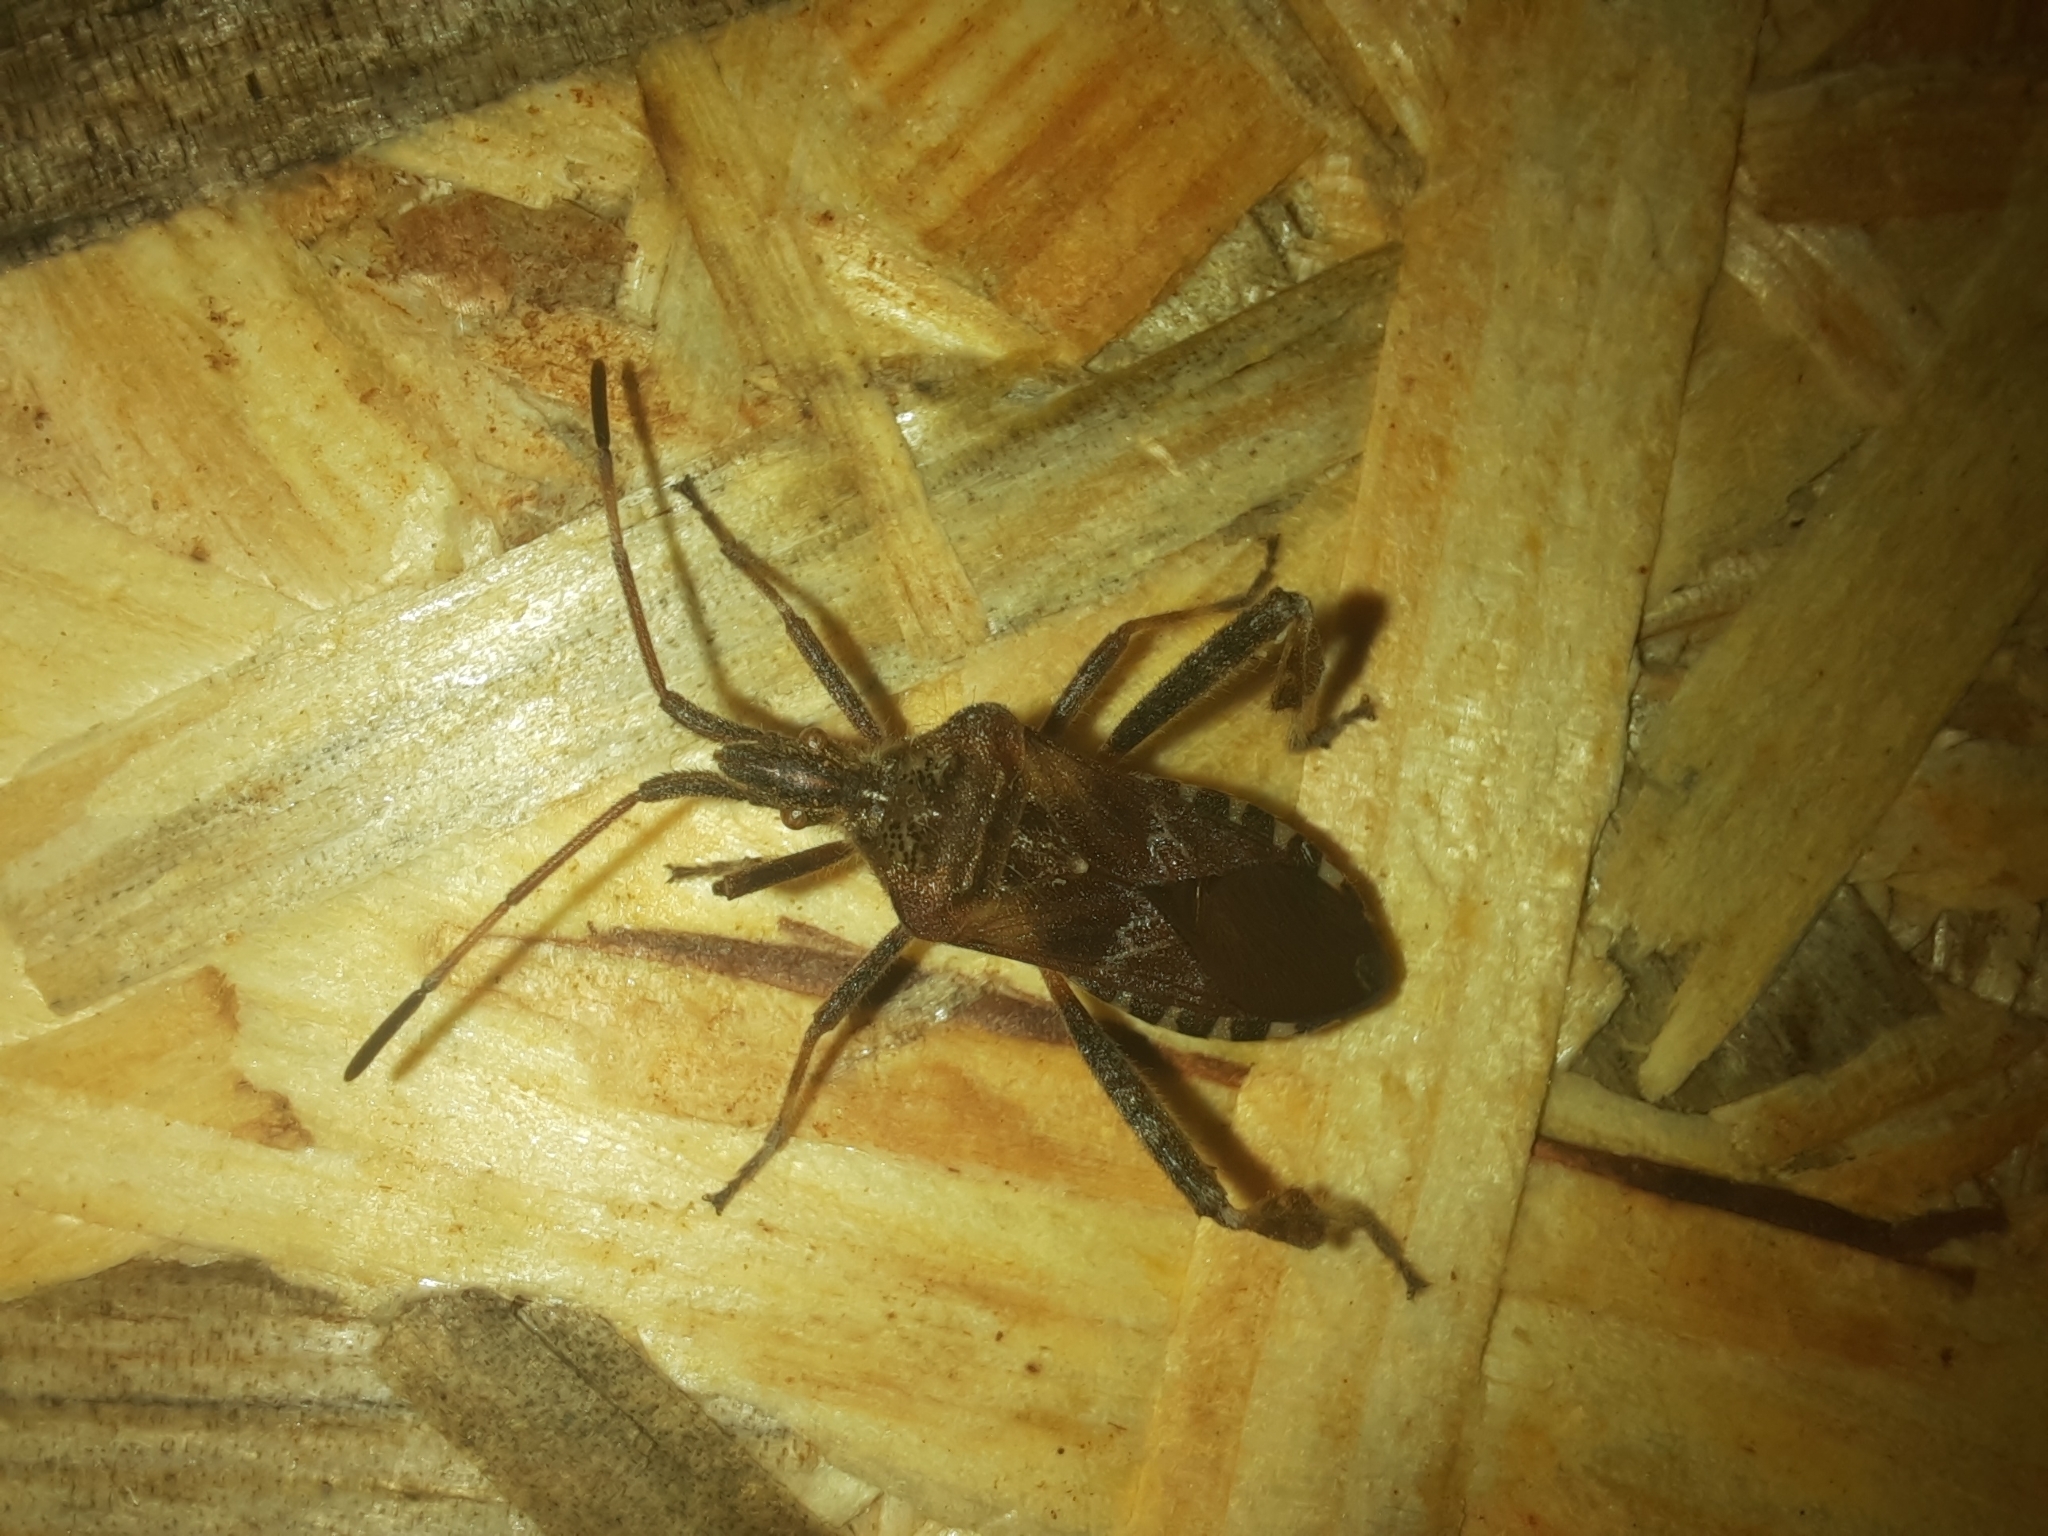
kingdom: Animalia
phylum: Arthropoda
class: Insecta
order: Hemiptera
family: Coreidae
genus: Leptoglossus
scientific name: Leptoglossus occidentalis
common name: Western conifer-seed bug
